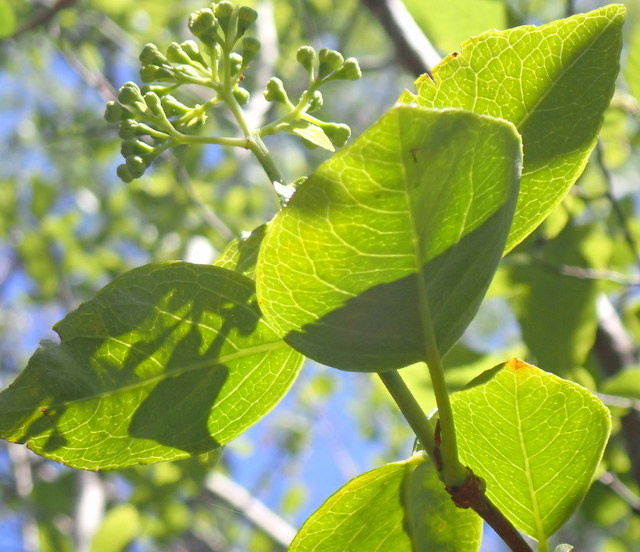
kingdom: Plantae
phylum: Tracheophyta
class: Magnoliopsida
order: Cornales
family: Hydrangeaceae
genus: Hydrangea
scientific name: Hydrangea barbara
